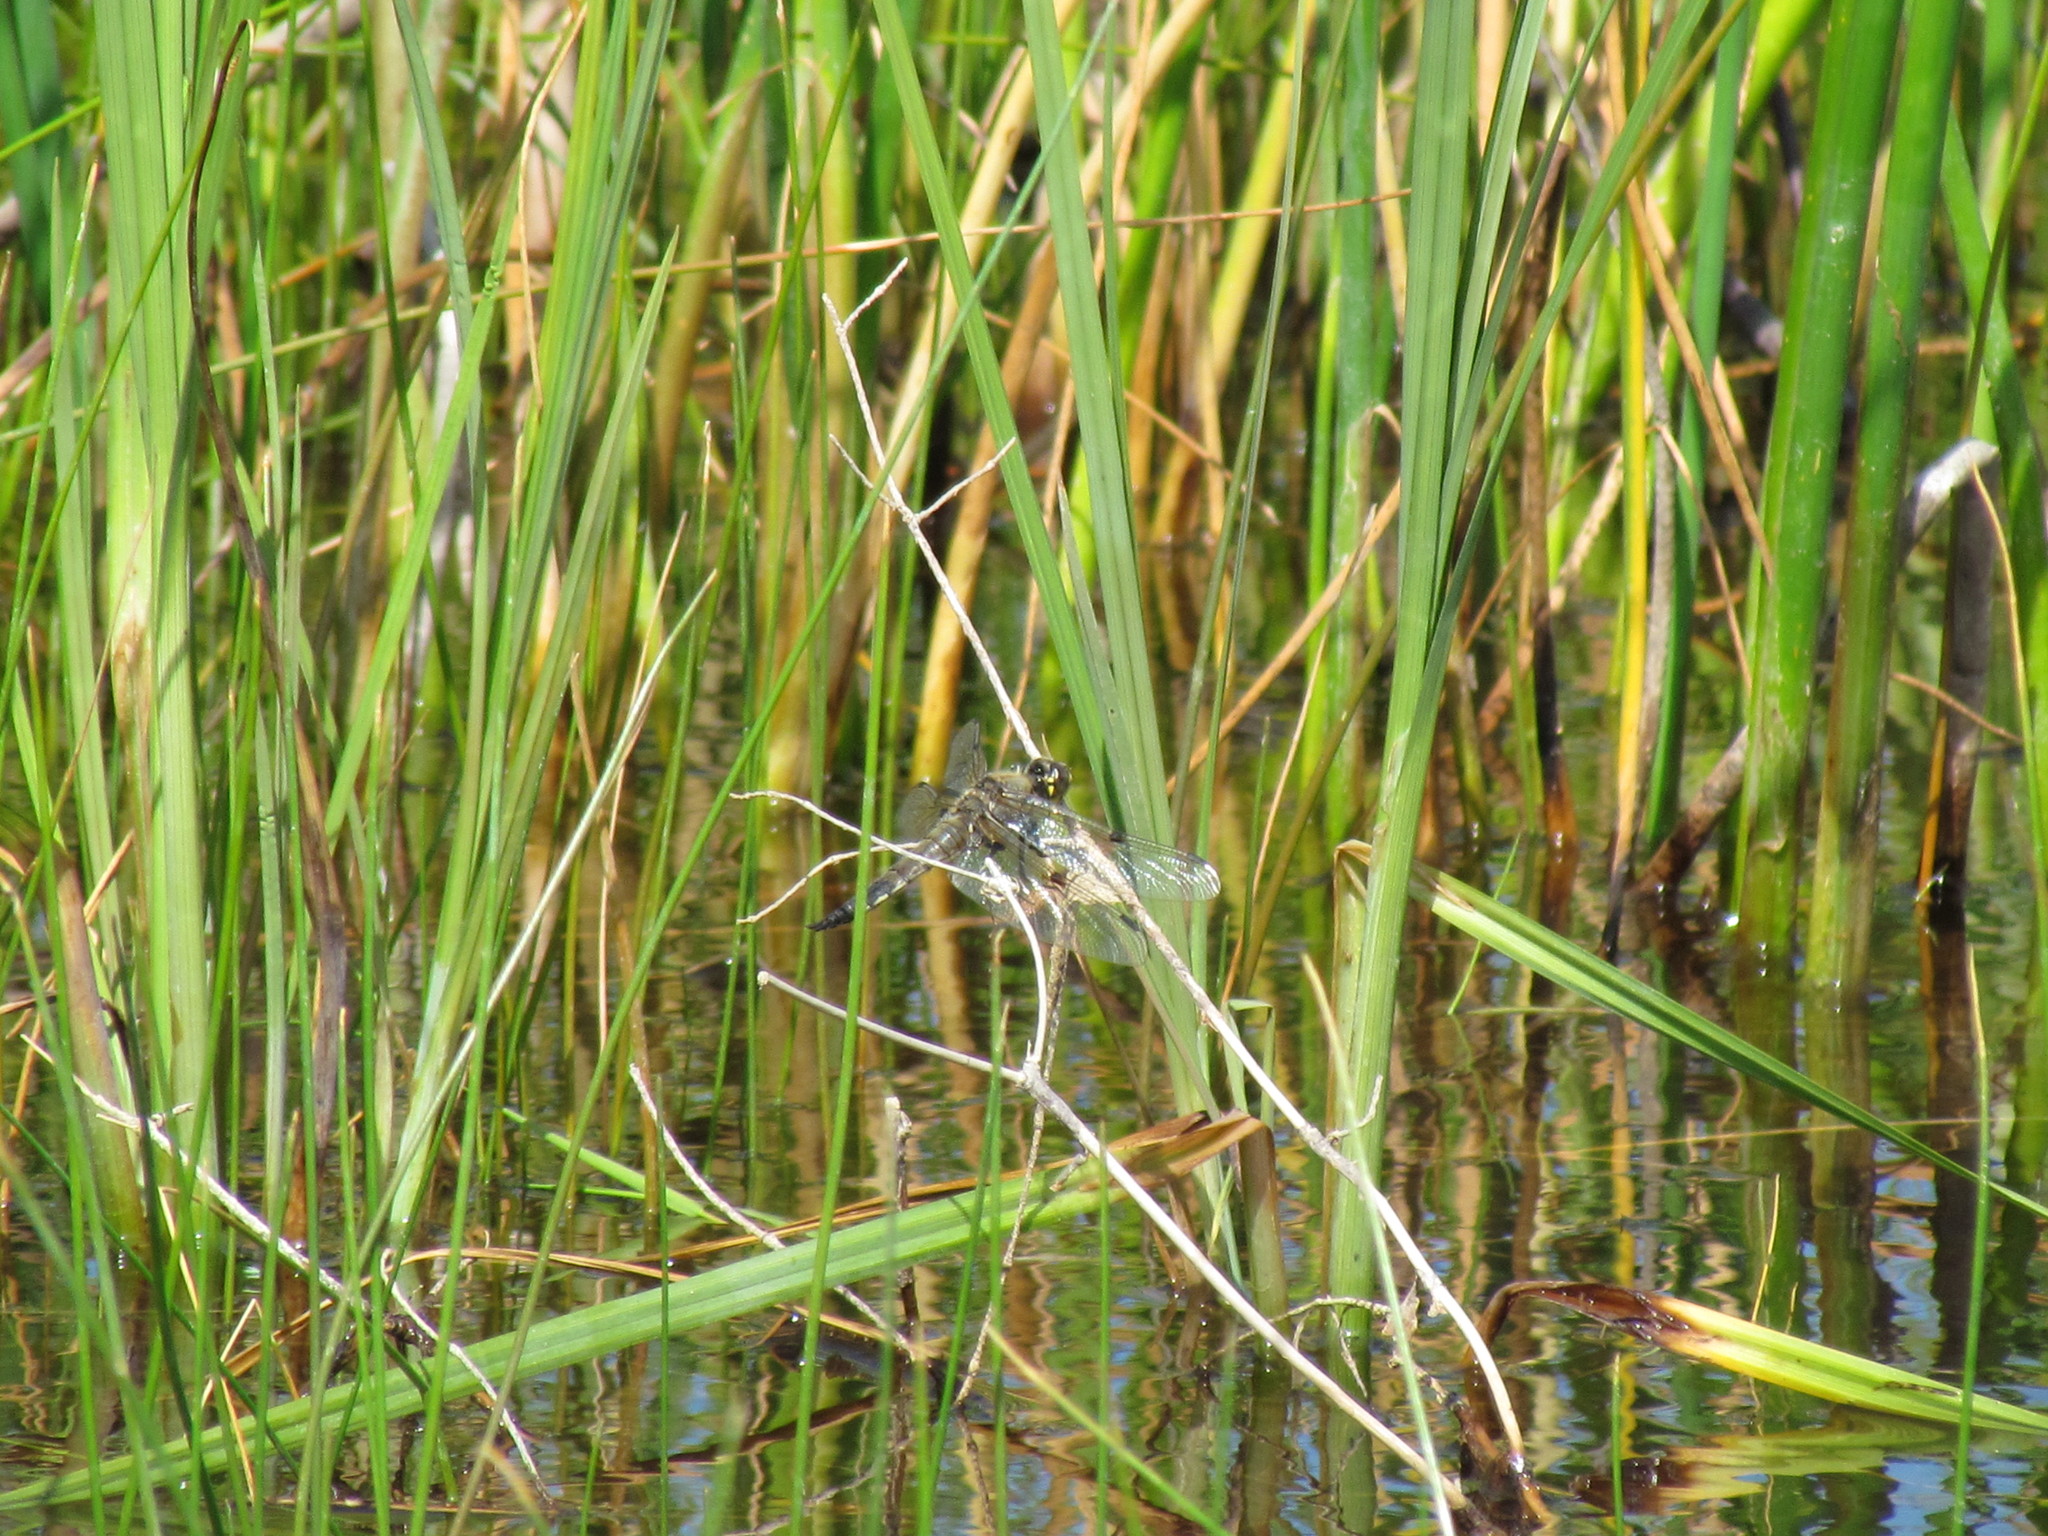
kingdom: Animalia
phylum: Arthropoda
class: Insecta
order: Odonata
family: Libellulidae
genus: Libellula
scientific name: Libellula quadrimaculata
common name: Four-spotted chaser
